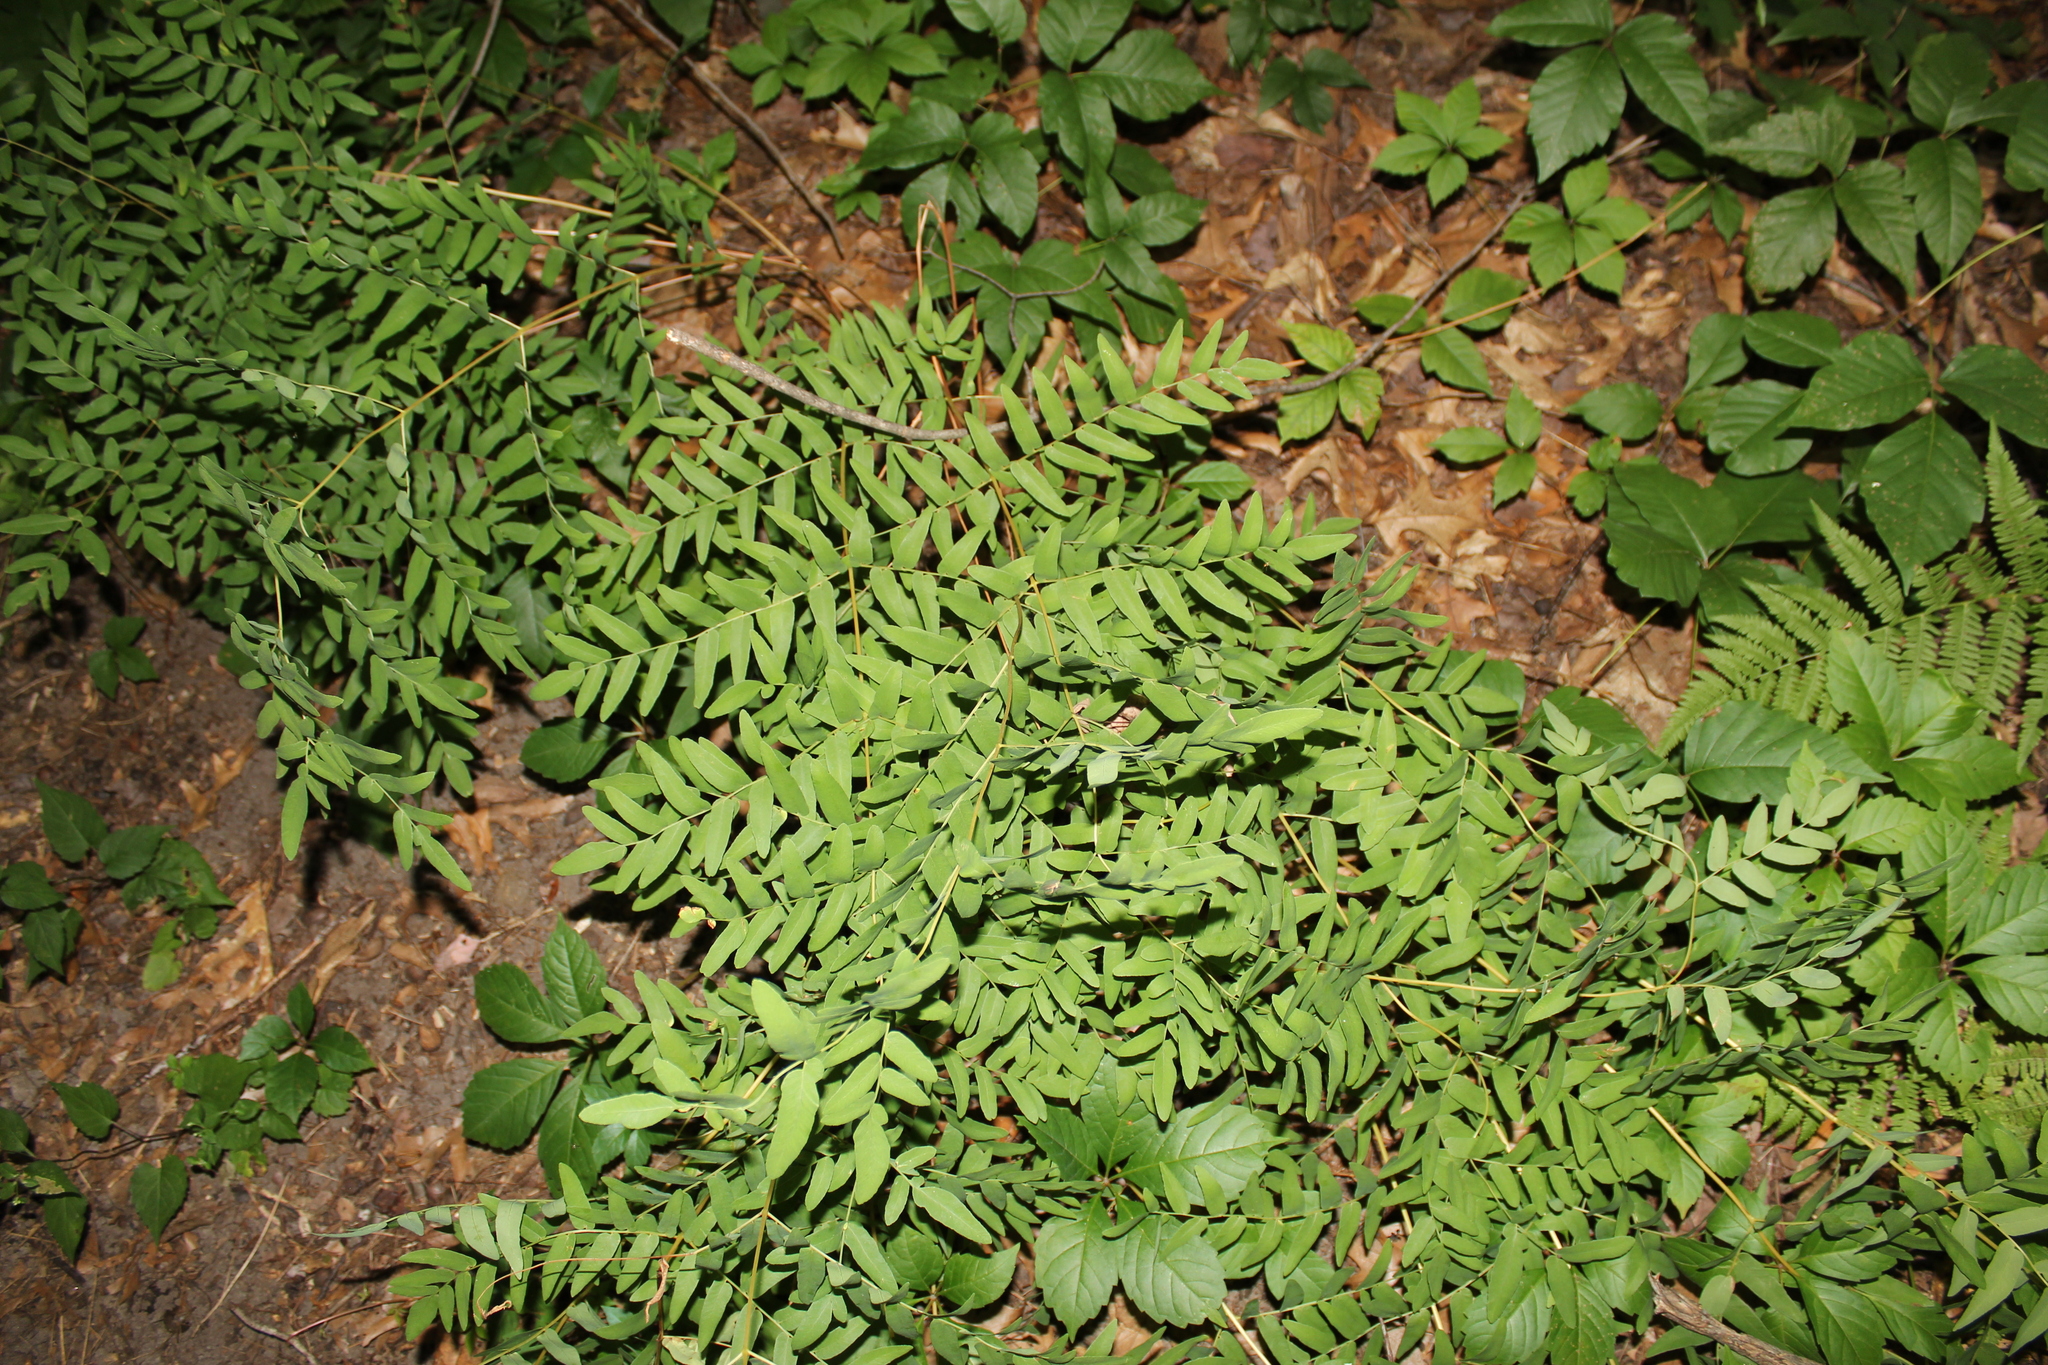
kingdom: Plantae
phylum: Tracheophyta
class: Polypodiopsida
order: Osmundales
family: Osmundaceae
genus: Osmunda
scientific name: Osmunda spectabilis
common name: American royal fern
